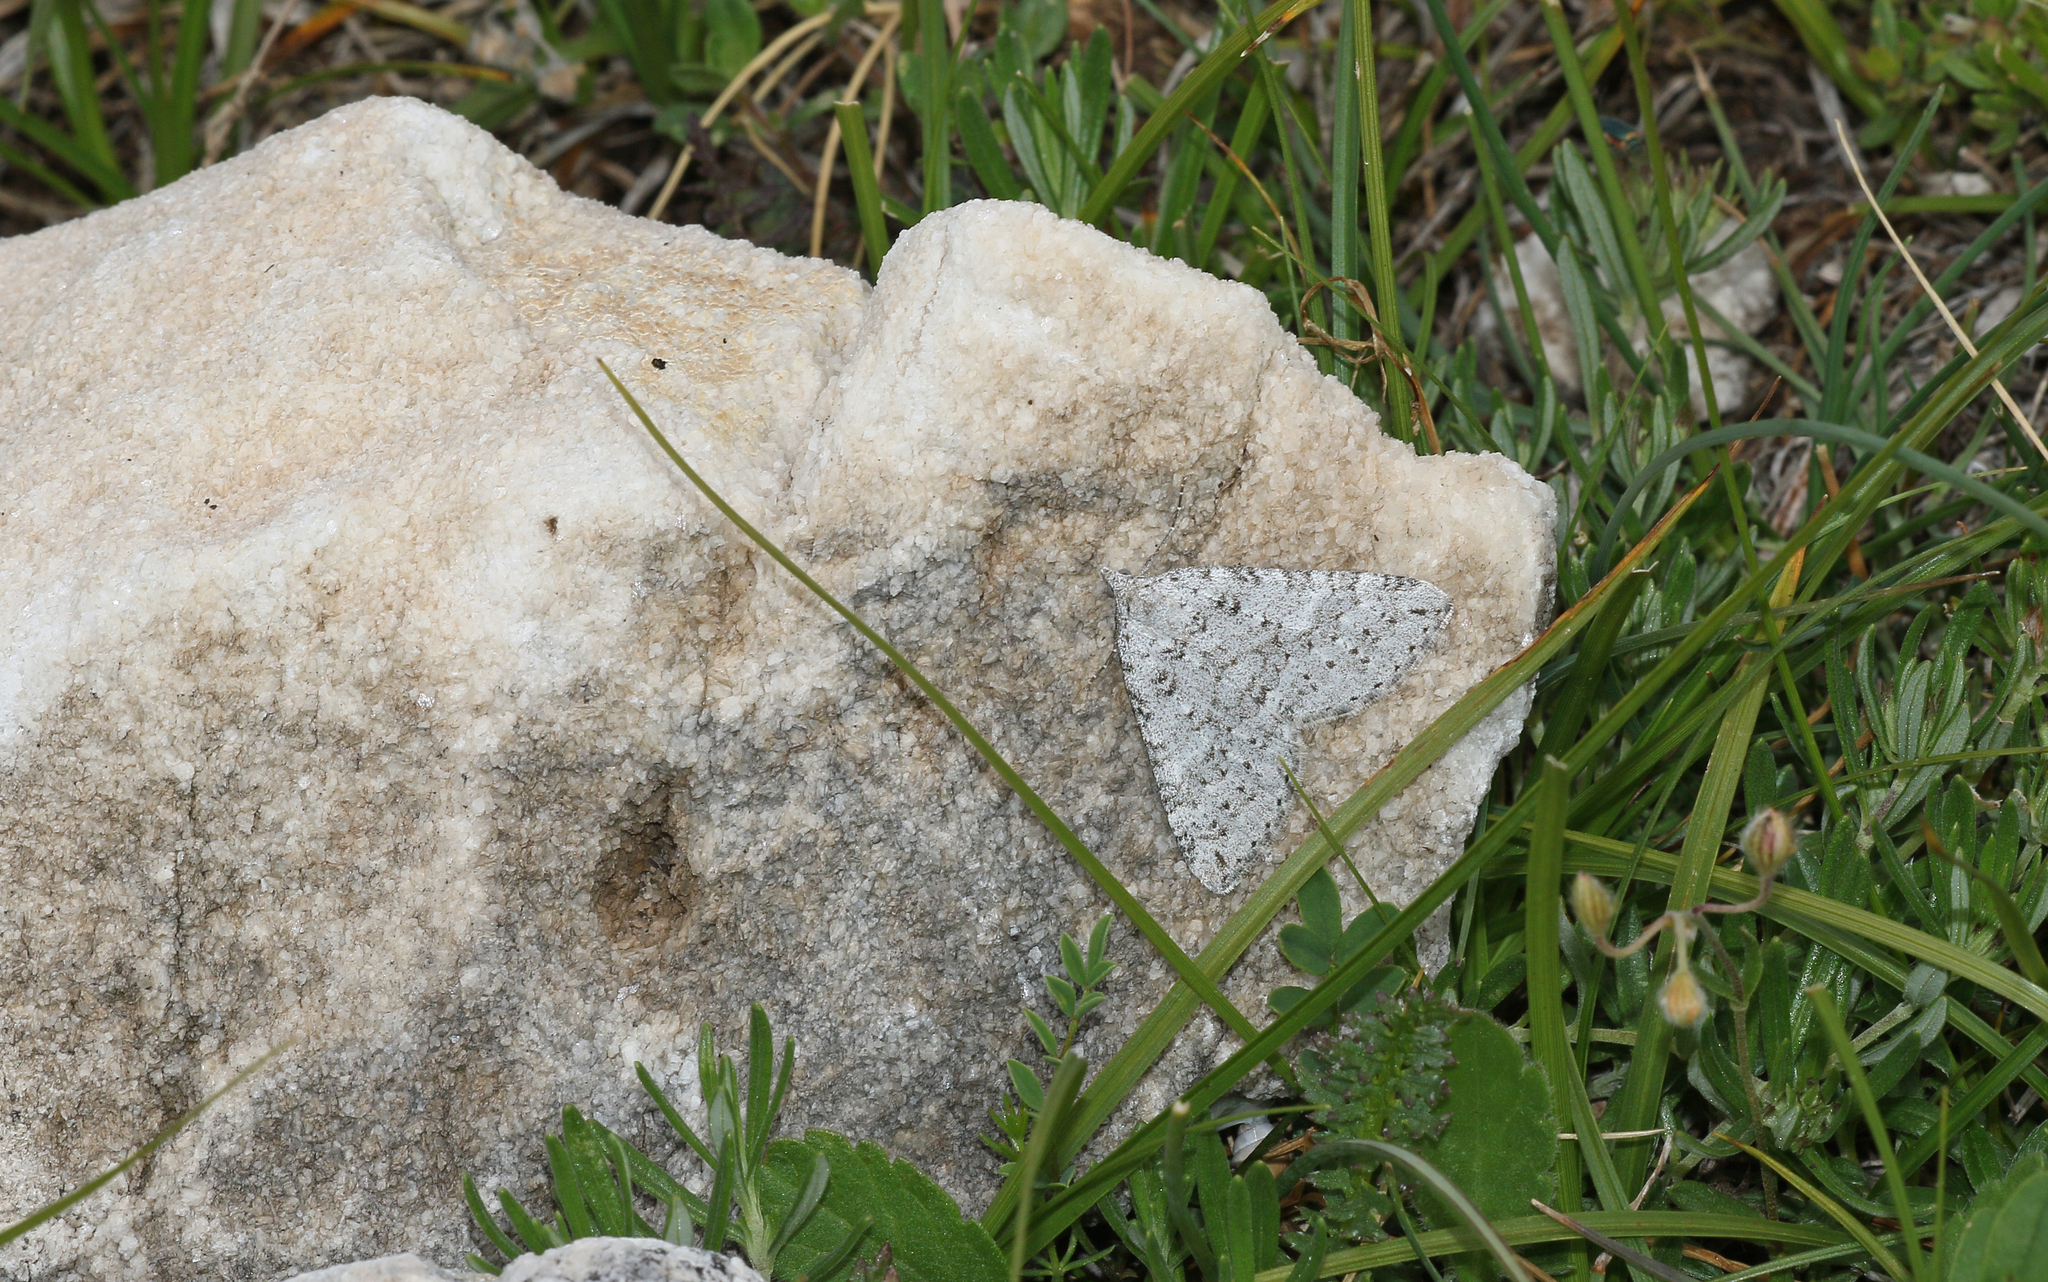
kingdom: Animalia
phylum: Arthropoda
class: Insecta
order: Lepidoptera
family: Geometridae
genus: Aplocera
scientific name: Aplocera simpliciata
